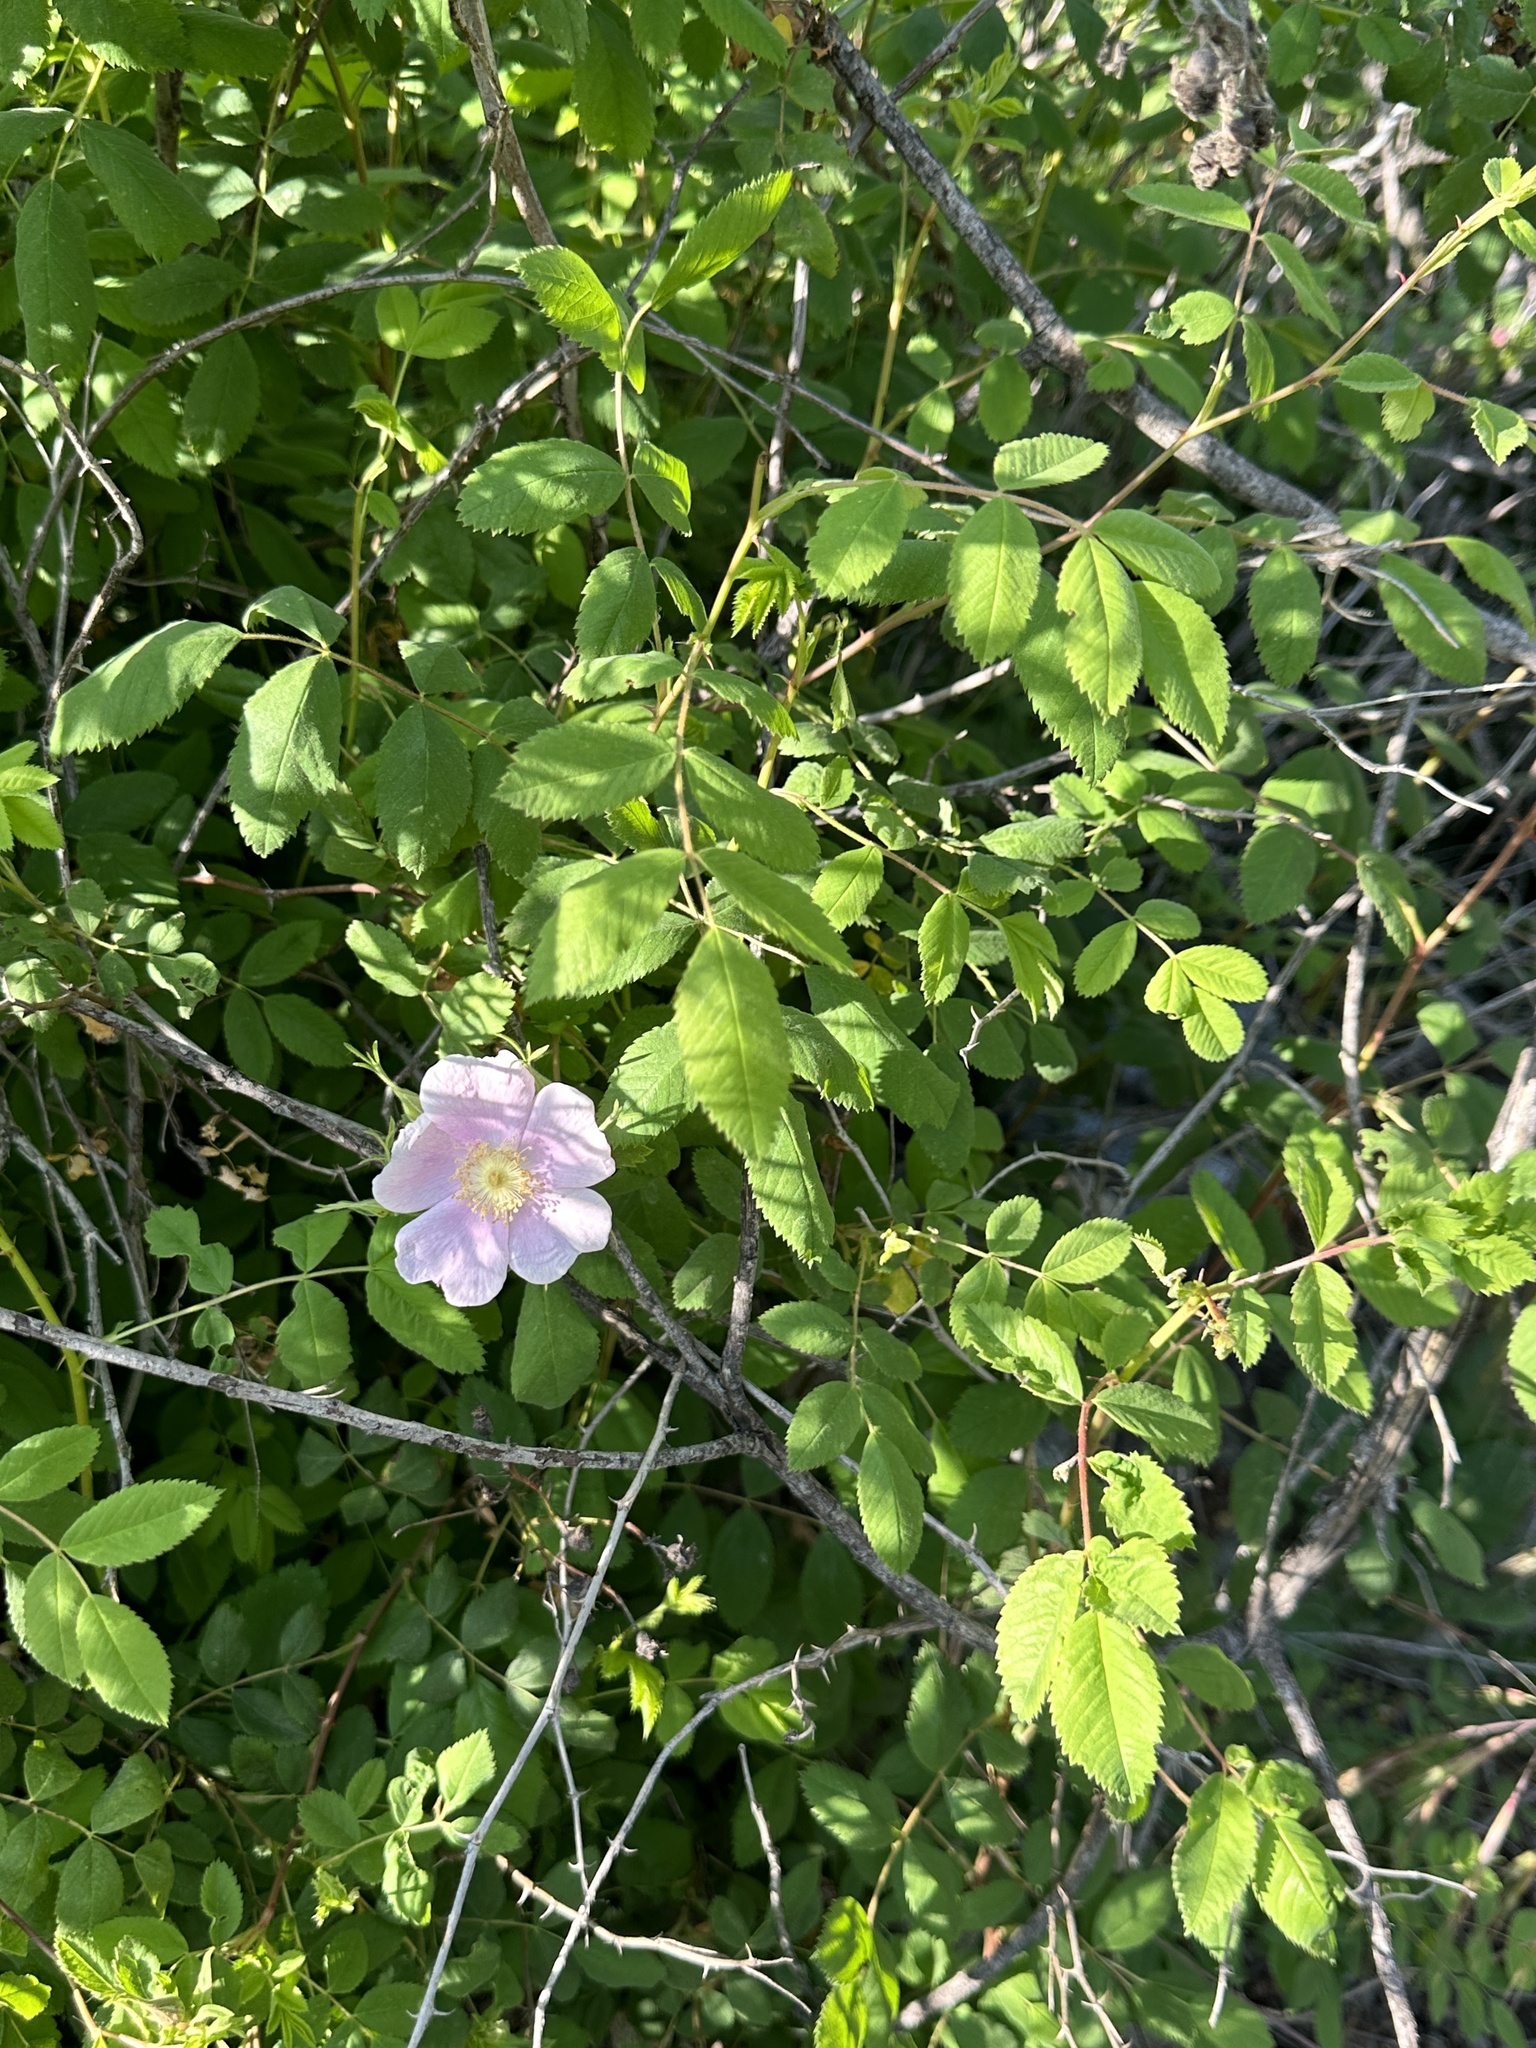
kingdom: Plantae
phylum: Tracheophyta
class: Magnoliopsida
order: Rosales
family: Rosaceae
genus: Rosa
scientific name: Rosa californica
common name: California rose
